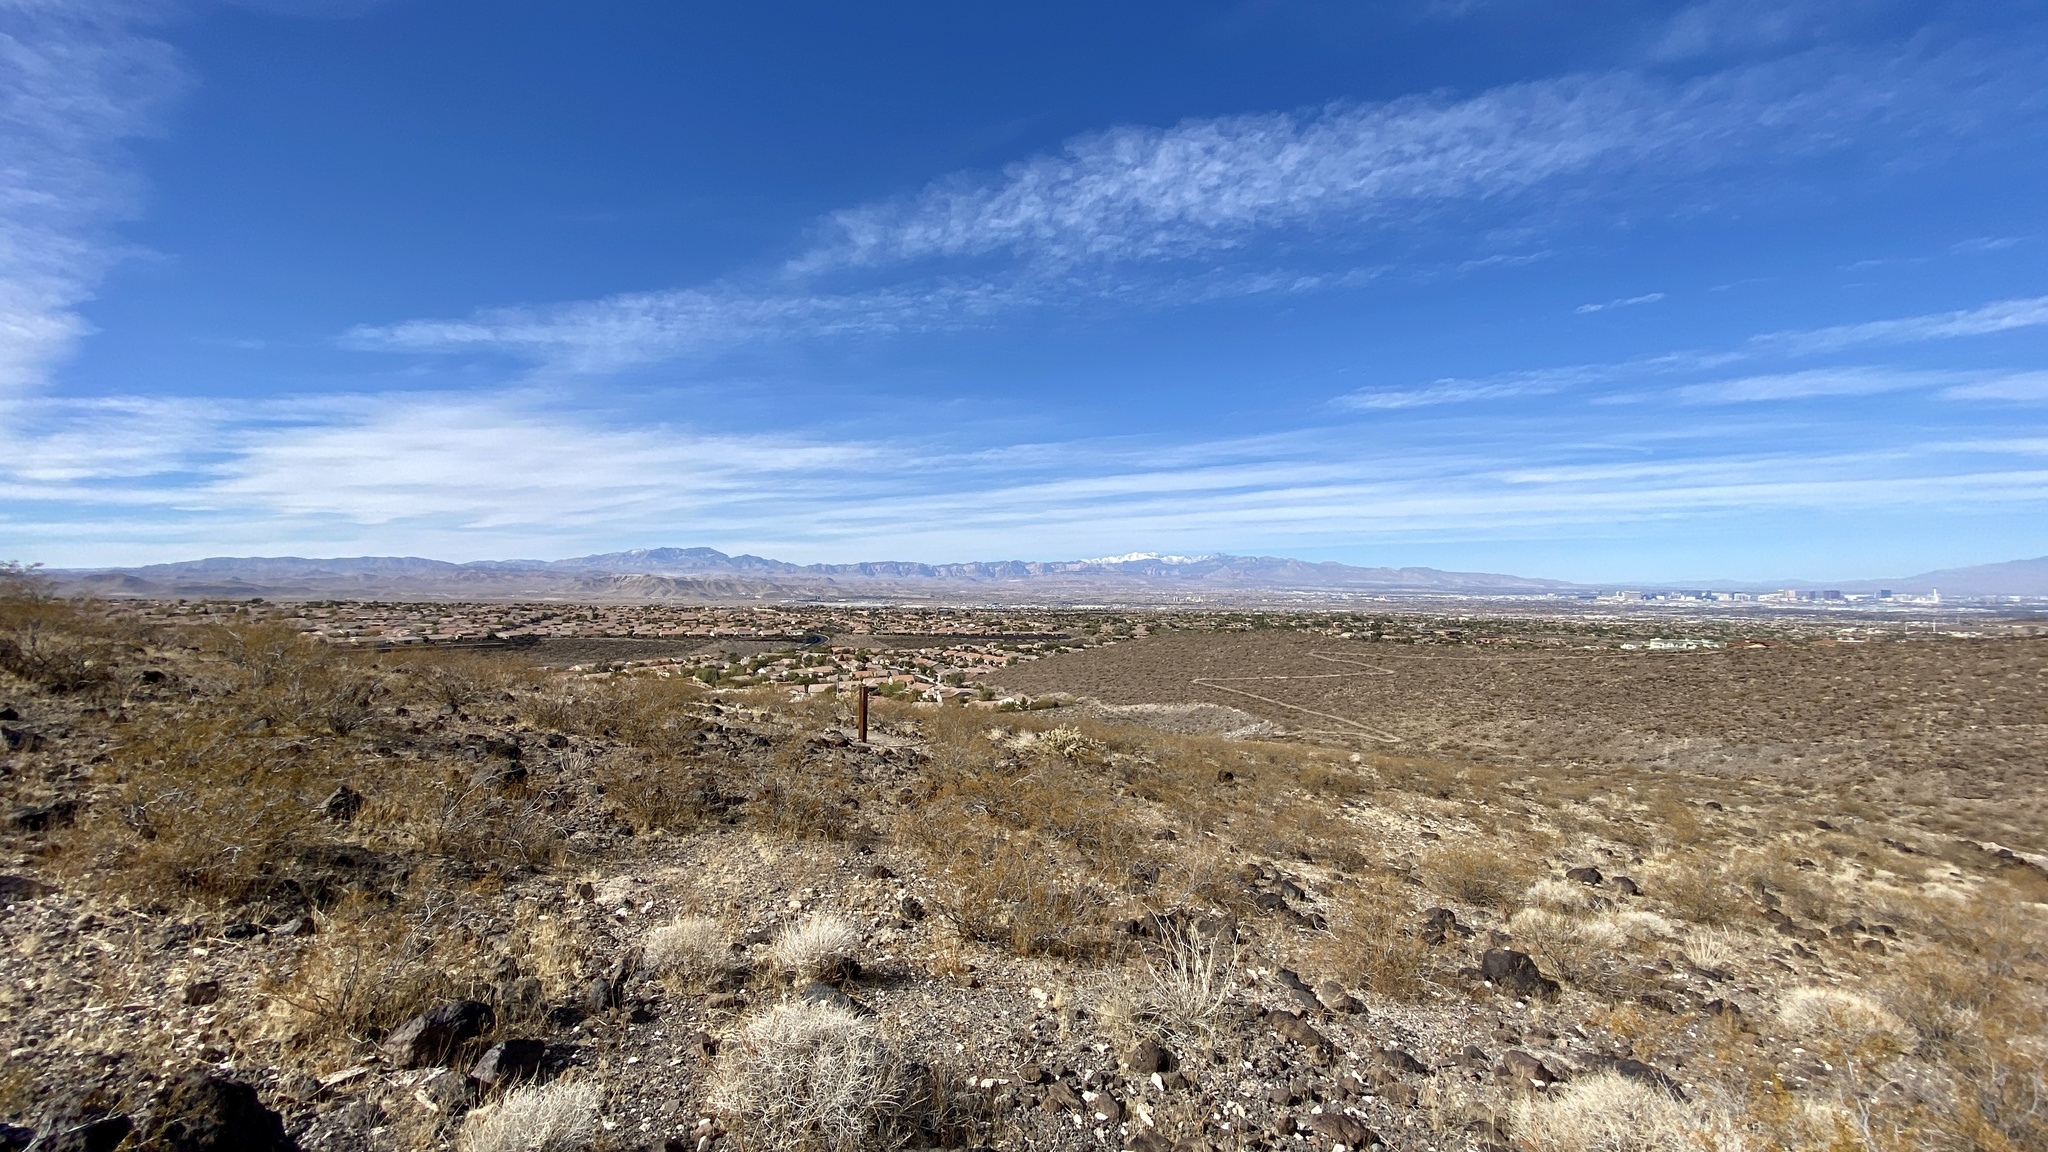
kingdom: Plantae
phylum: Tracheophyta
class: Magnoliopsida
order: Zygophyllales
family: Zygophyllaceae
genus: Larrea
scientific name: Larrea tridentata
